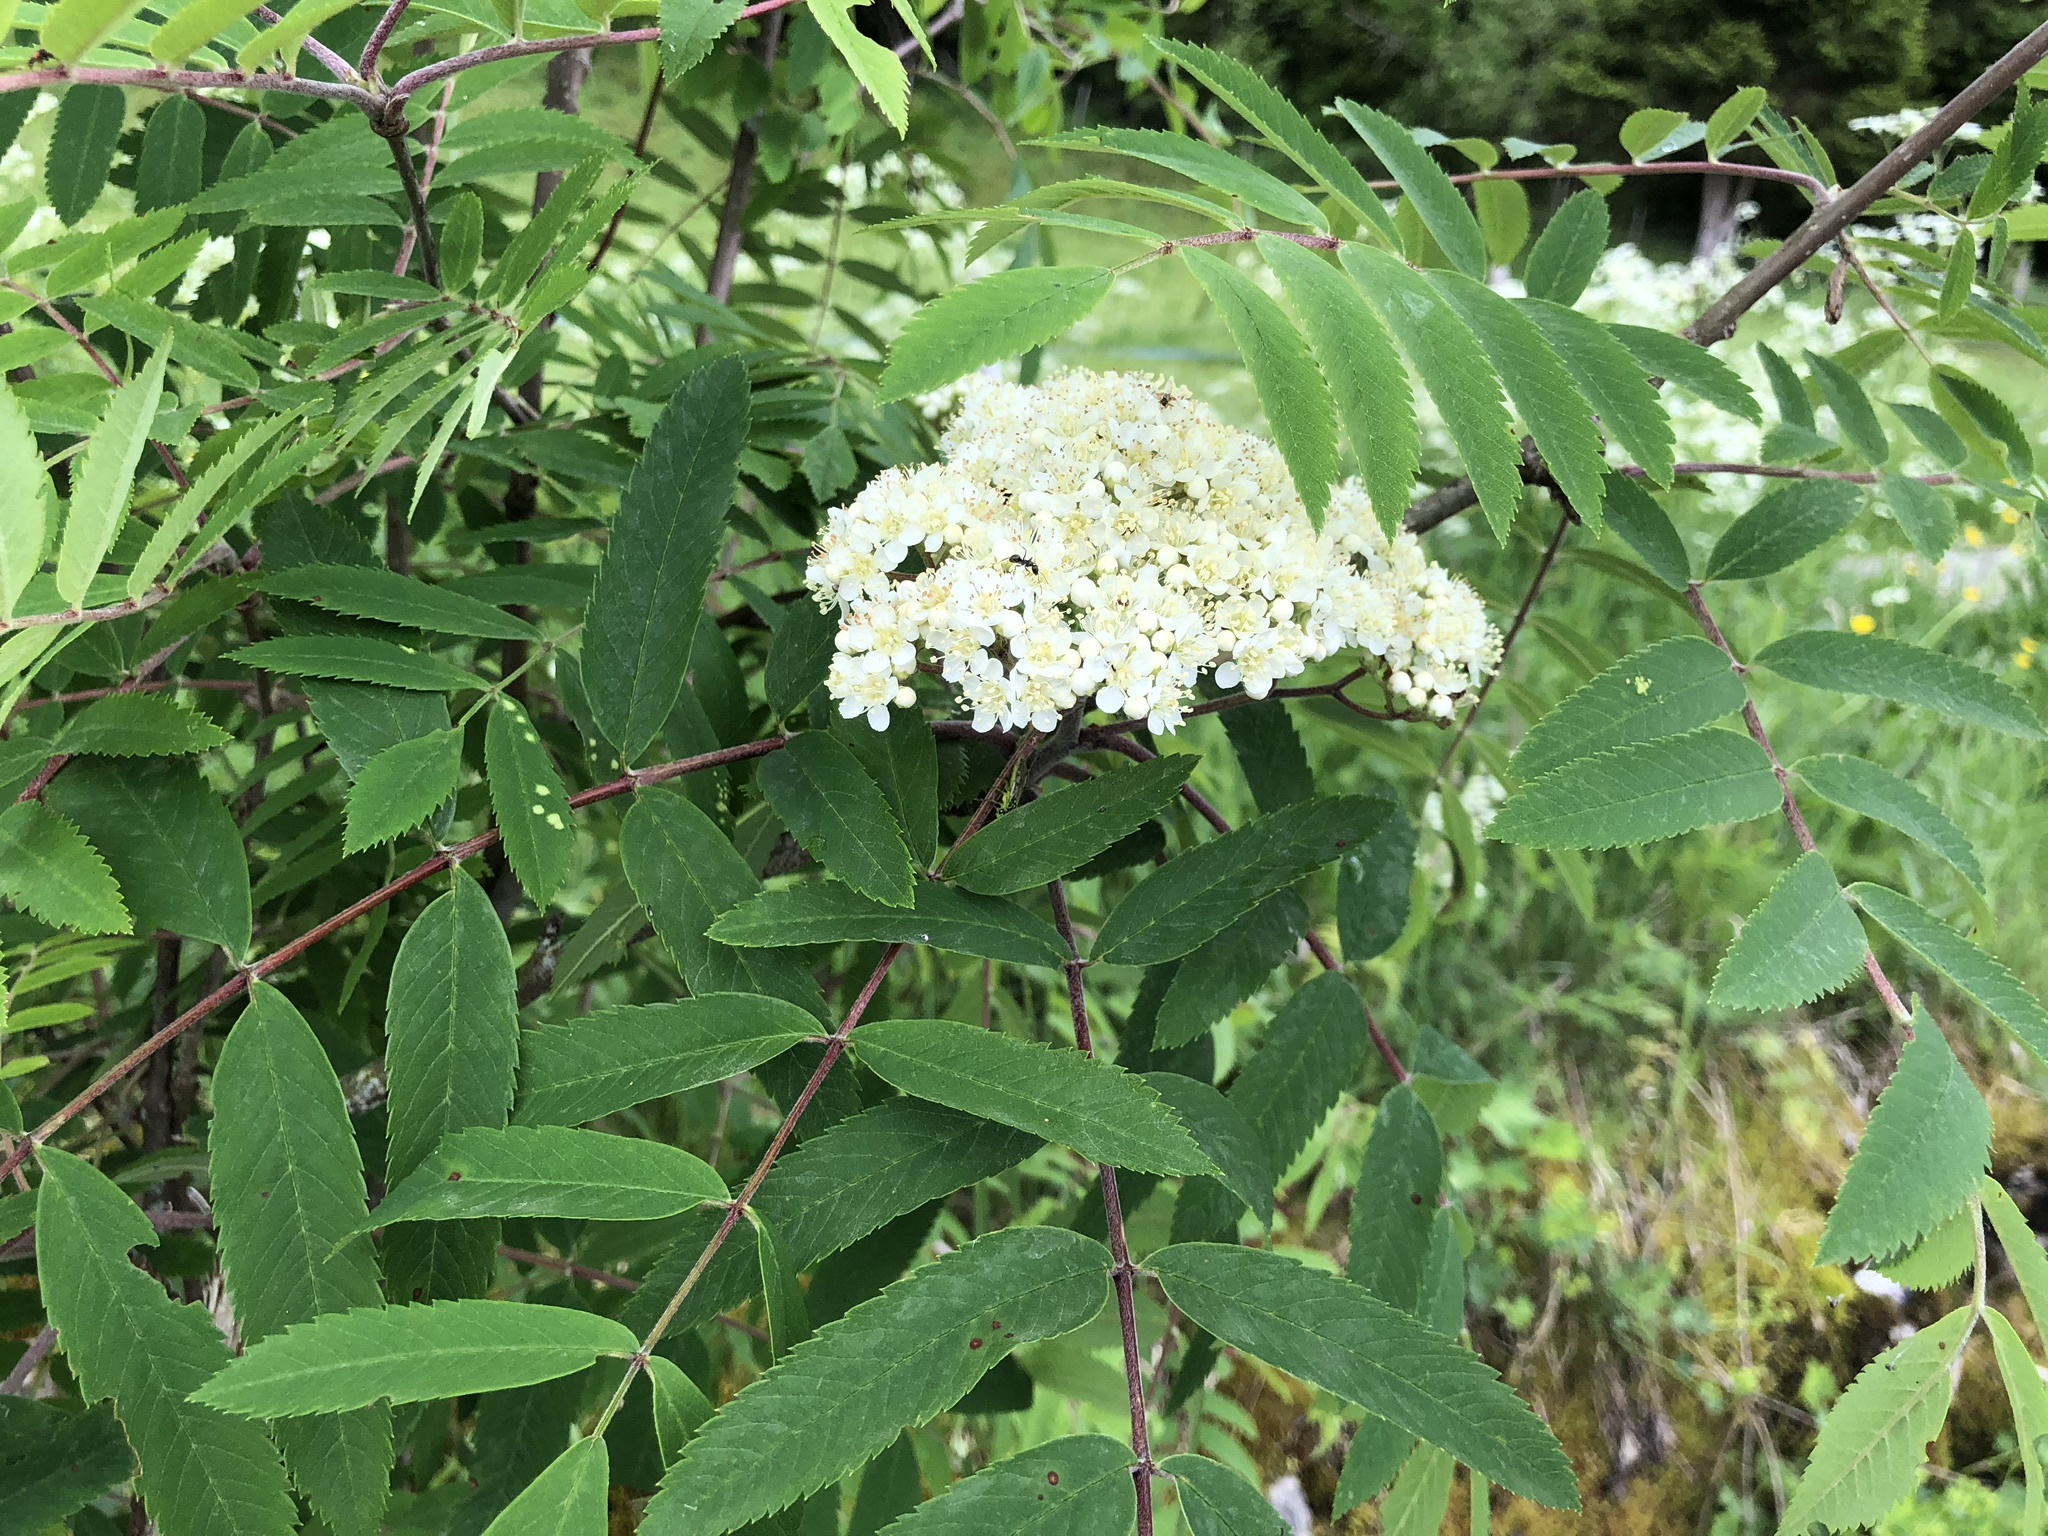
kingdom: Plantae
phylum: Tracheophyta
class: Magnoliopsida
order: Rosales
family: Rosaceae
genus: Sorbus
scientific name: Sorbus aucuparia
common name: Rowan
